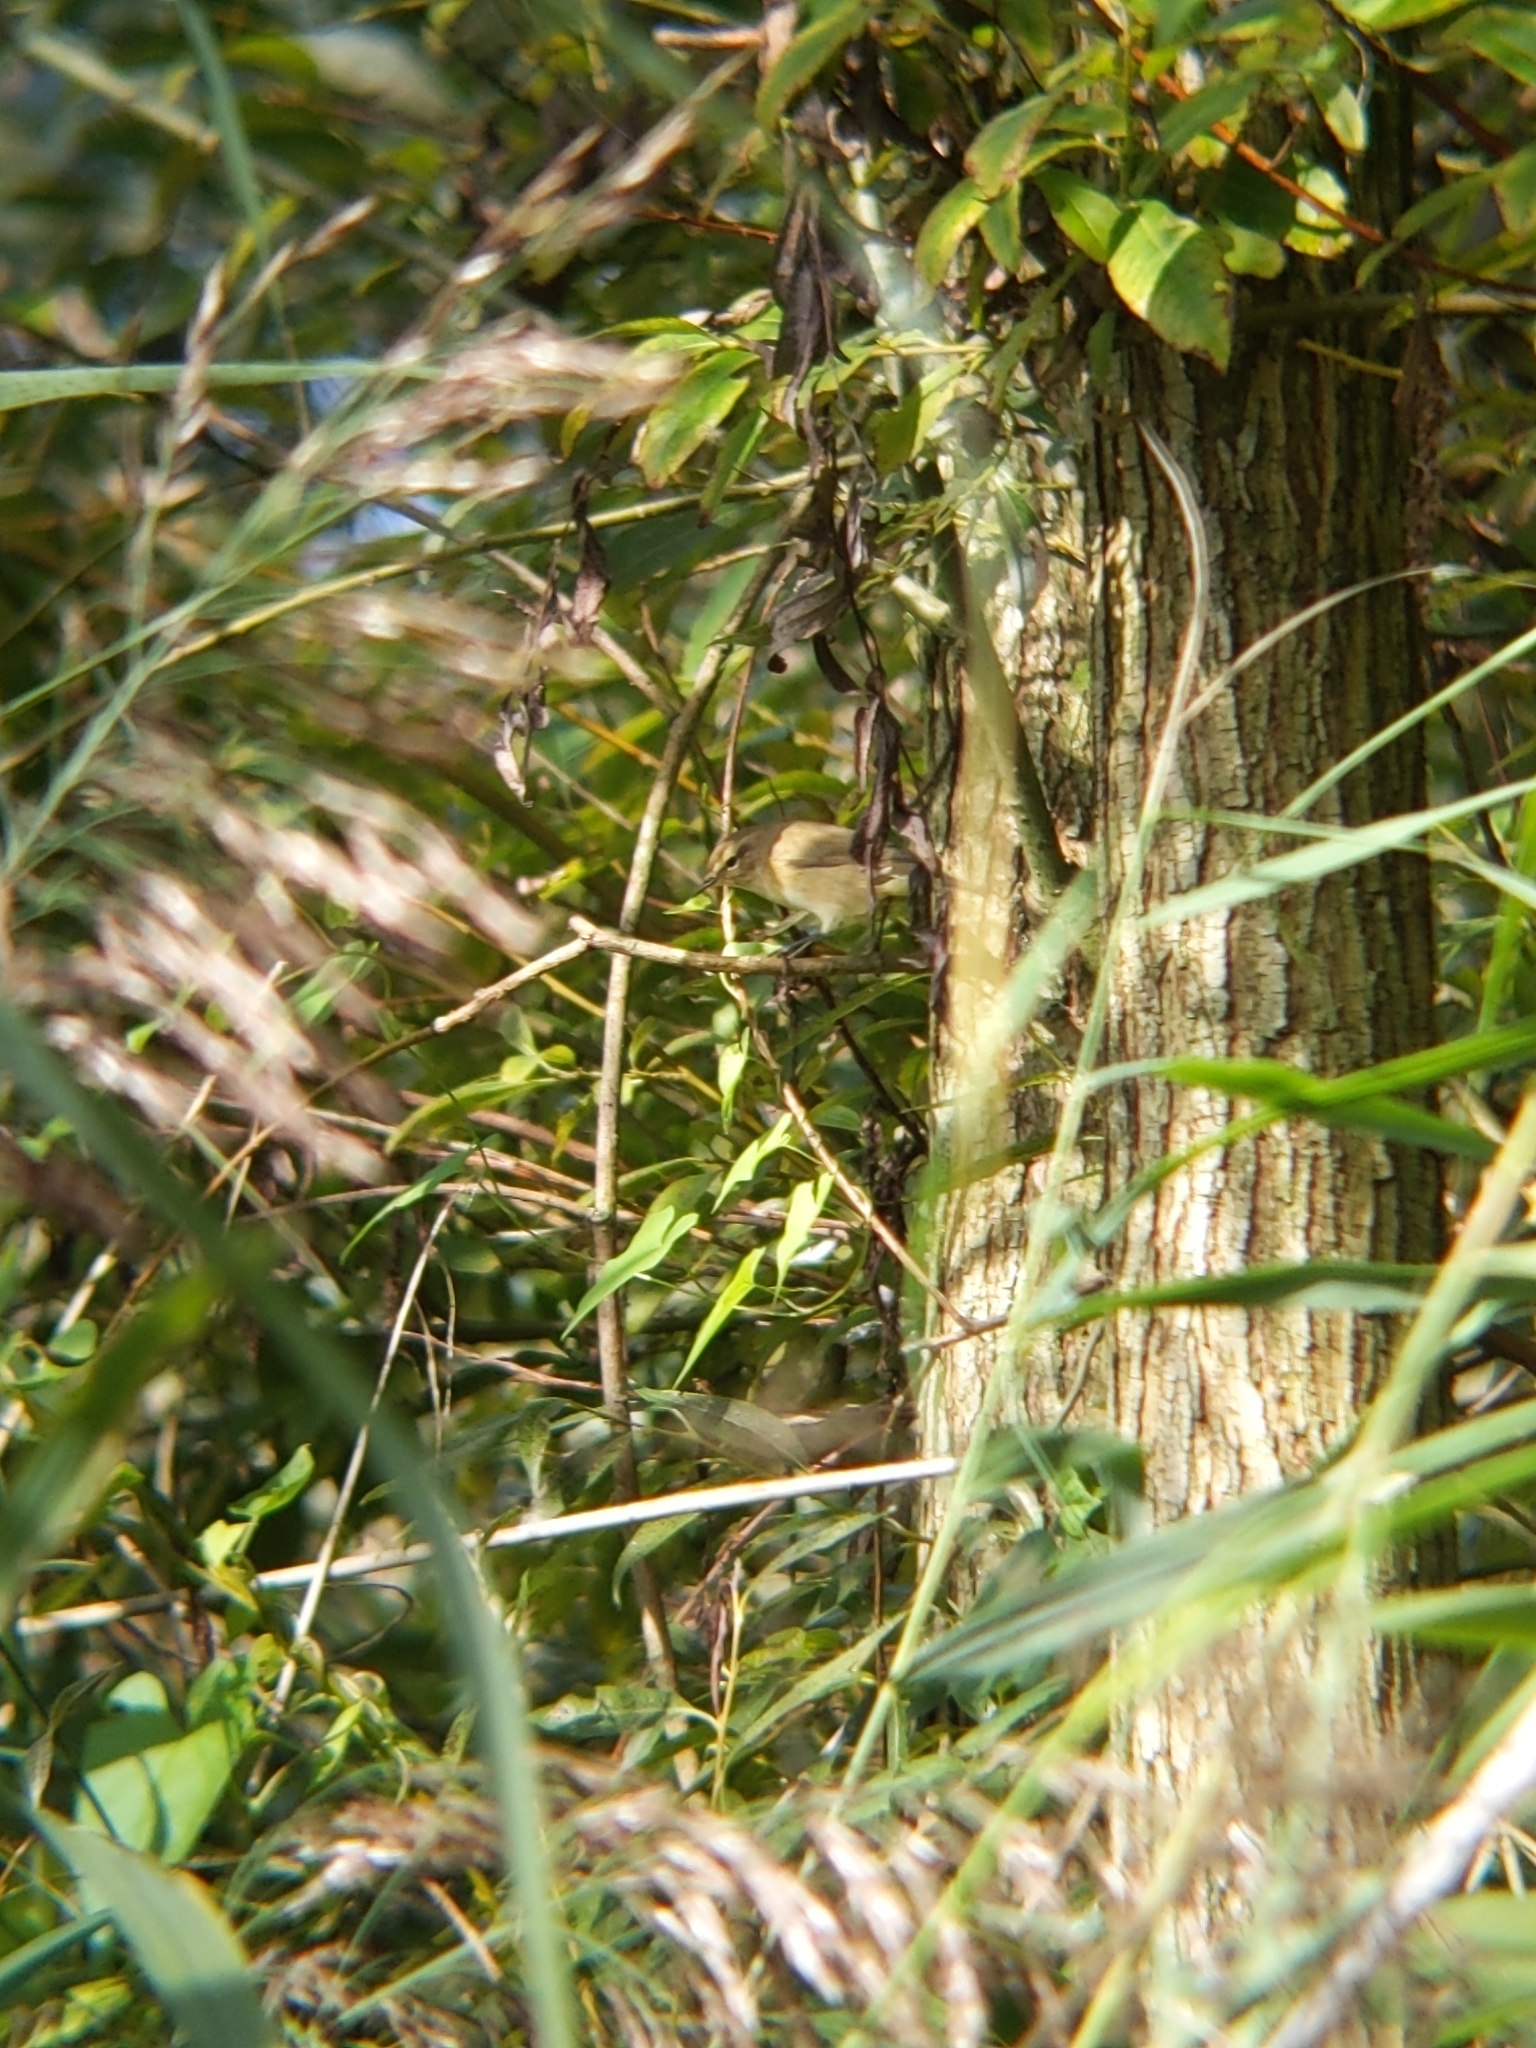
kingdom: Animalia
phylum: Chordata
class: Aves
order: Passeriformes
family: Phylloscopidae
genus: Phylloscopus
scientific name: Phylloscopus collybita
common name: Common chiffchaff
